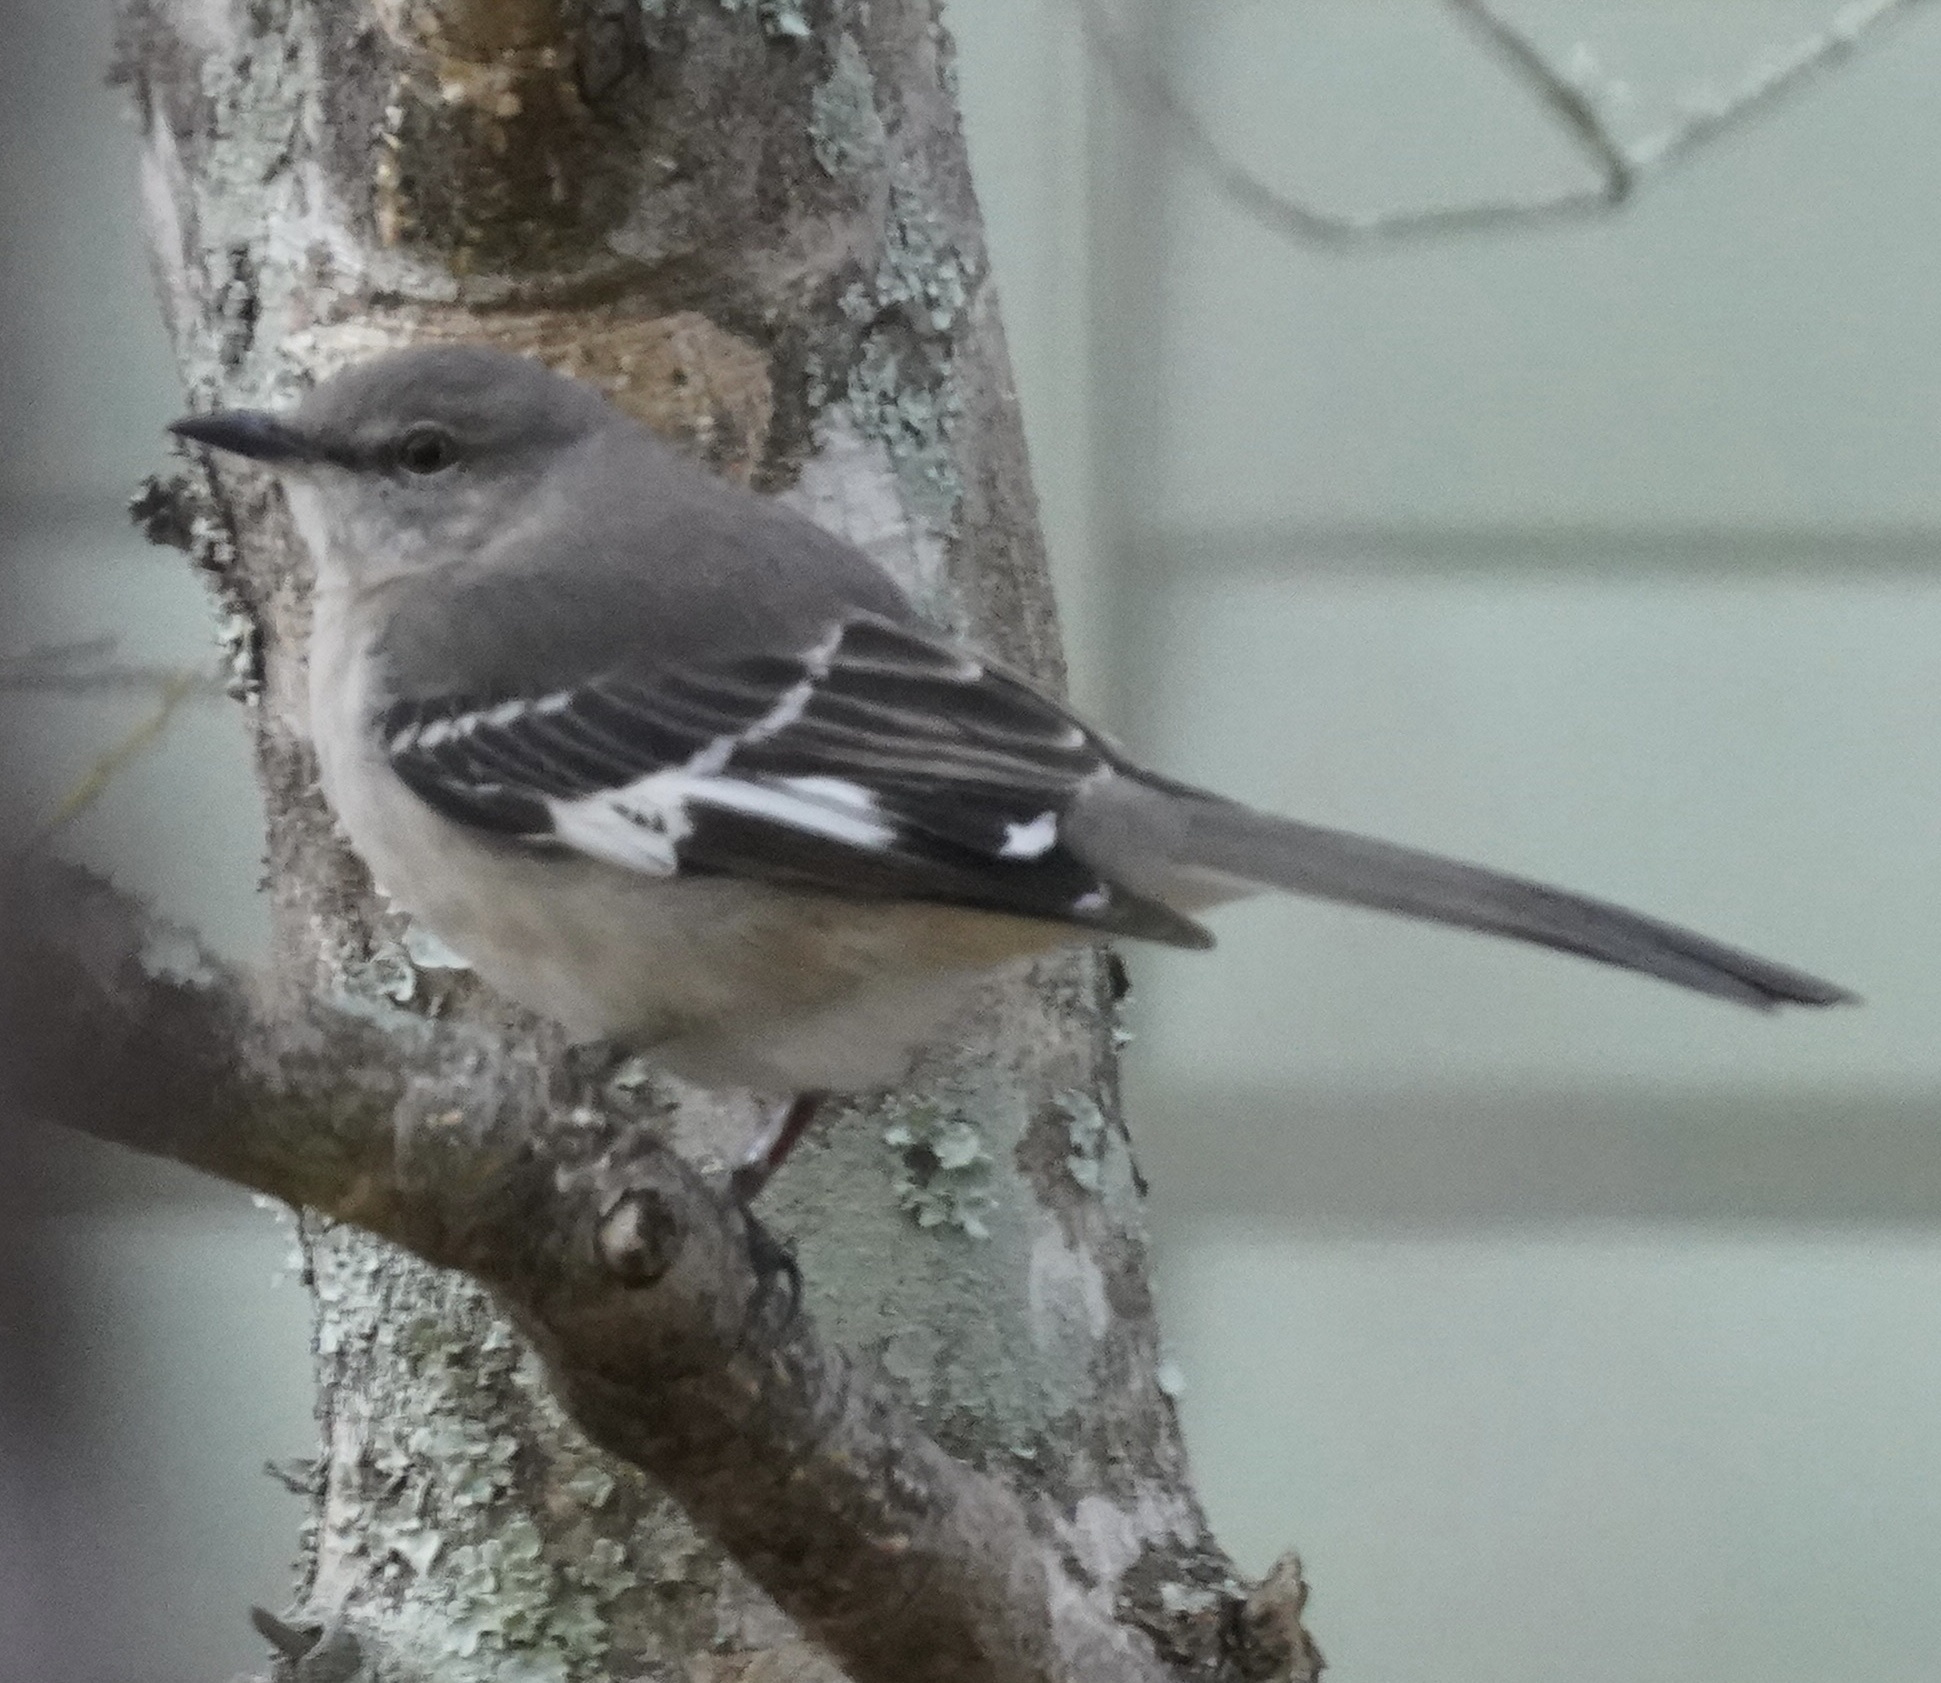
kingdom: Animalia
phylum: Chordata
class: Aves
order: Passeriformes
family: Mimidae
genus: Mimus
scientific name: Mimus polyglottos
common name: Northern mockingbird
